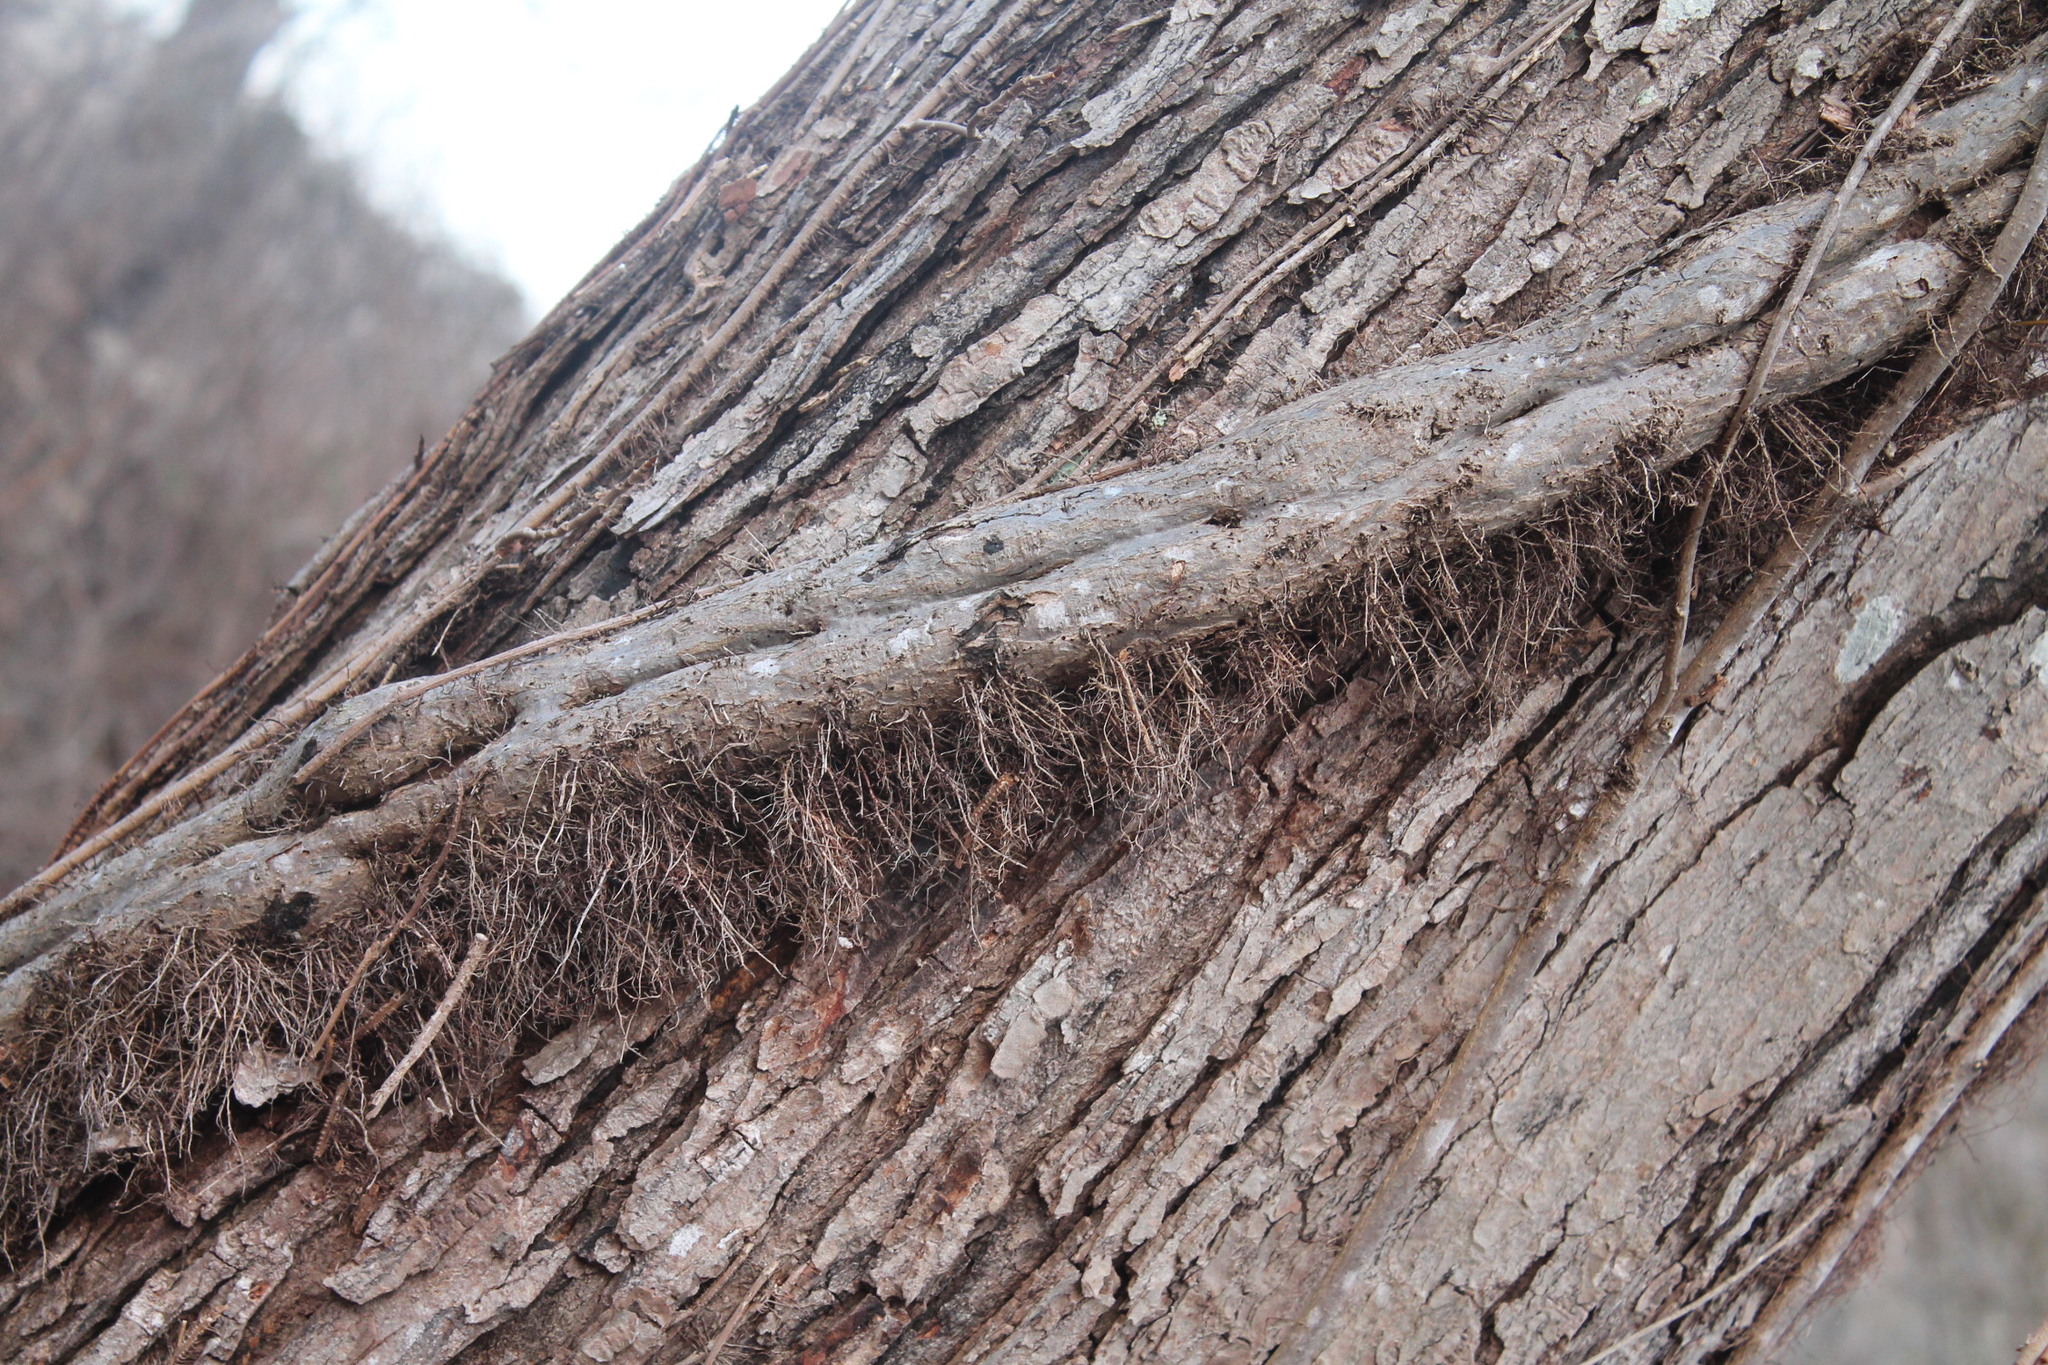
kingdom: Plantae
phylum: Tracheophyta
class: Magnoliopsida
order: Sapindales
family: Anacardiaceae
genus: Toxicodendron
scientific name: Toxicodendron radicans
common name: Poison ivy
